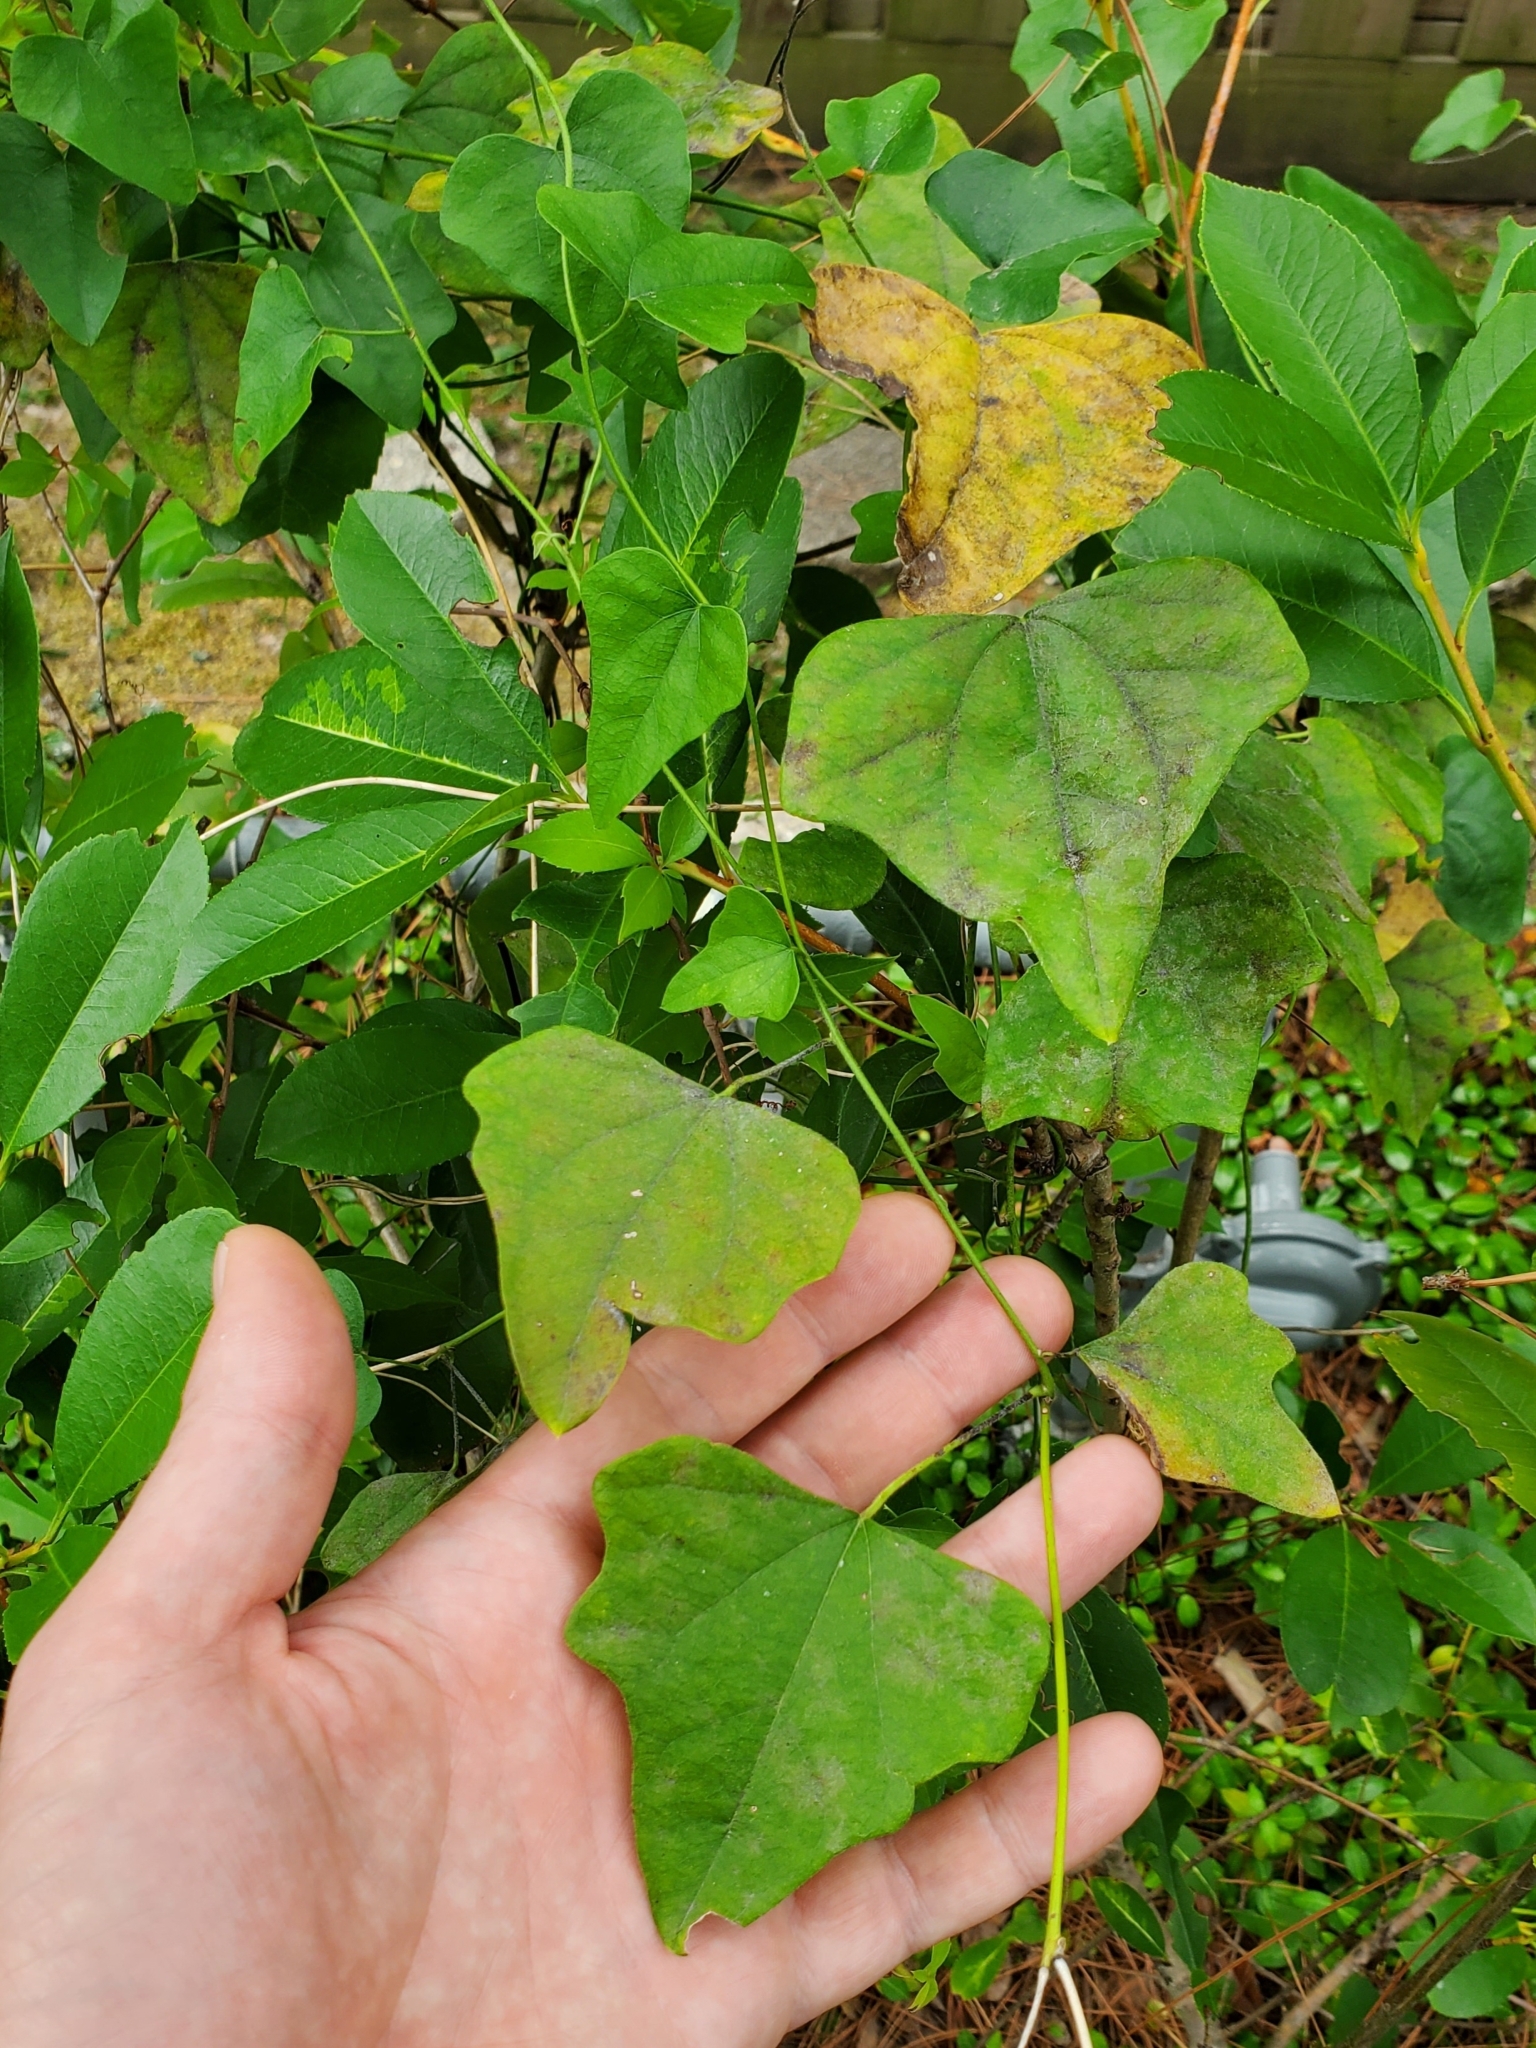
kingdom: Plantae
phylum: Tracheophyta
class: Magnoliopsida
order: Ranunculales
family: Menispermaceae
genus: Cocculus
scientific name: Cocculus carolinus
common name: Carolina moonseed
